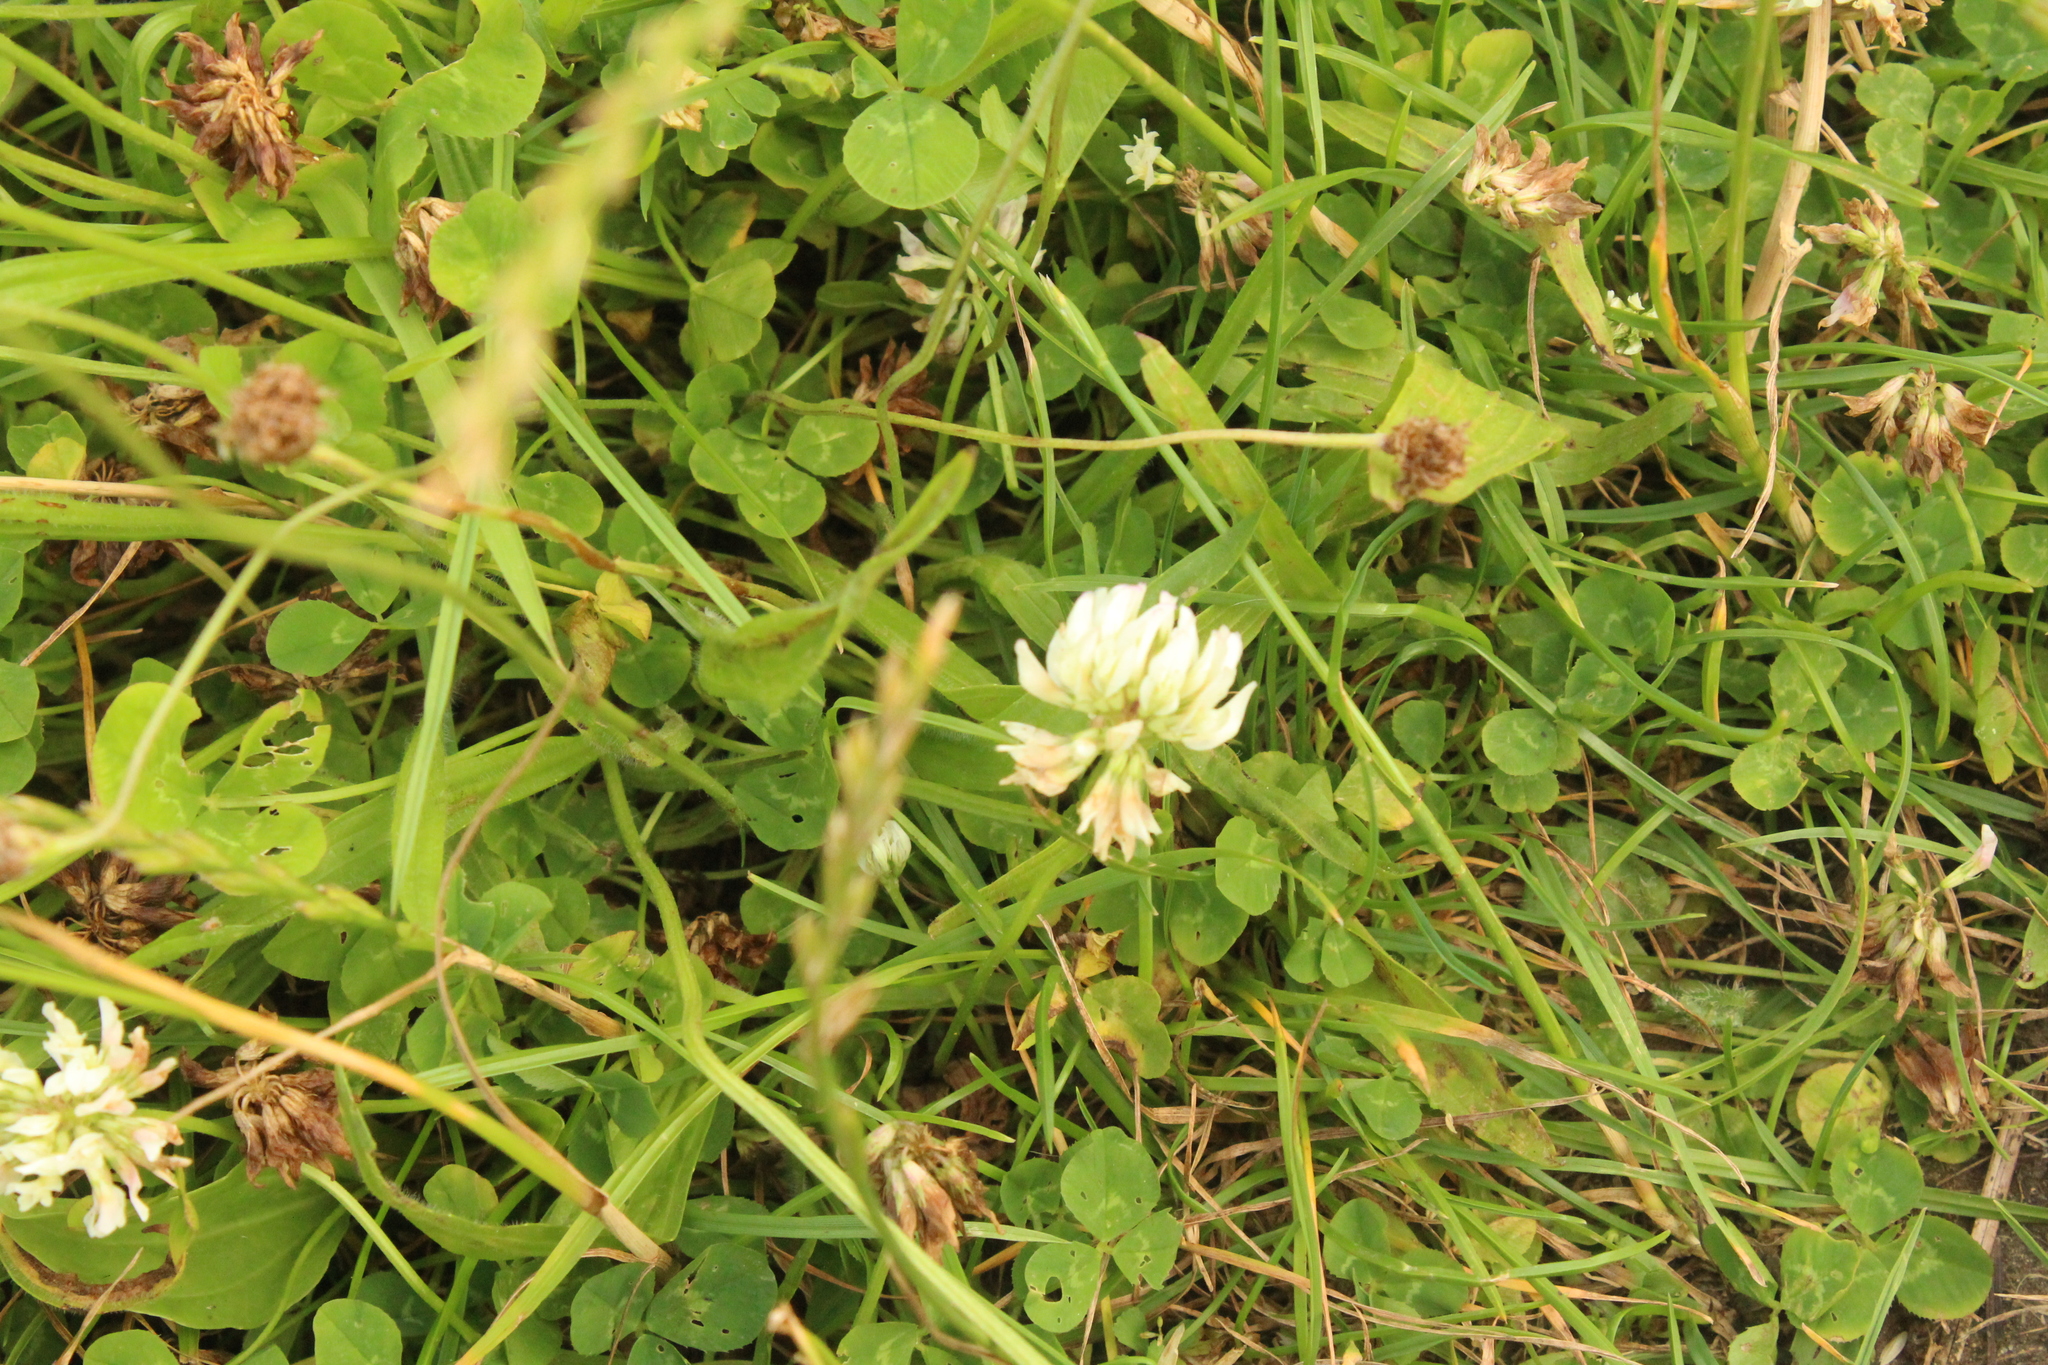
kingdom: Plantae
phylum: Tracheophyta
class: Magnoliopsida
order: Fabales
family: Fabaceae
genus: Trifolium
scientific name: Trifolium repens
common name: White clover
